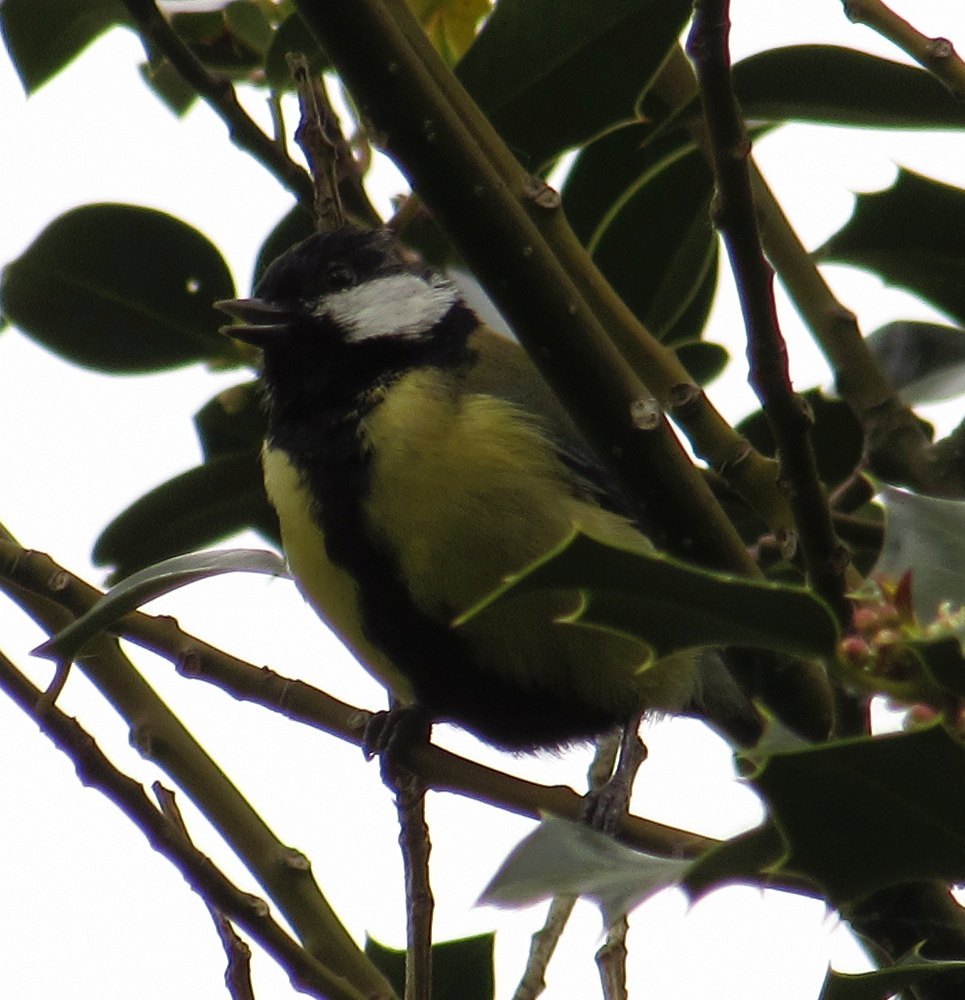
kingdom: Animalia
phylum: Chordata
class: Aves
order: Passeriformes
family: Paridae
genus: Parus
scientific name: Parus major
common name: Great tit
